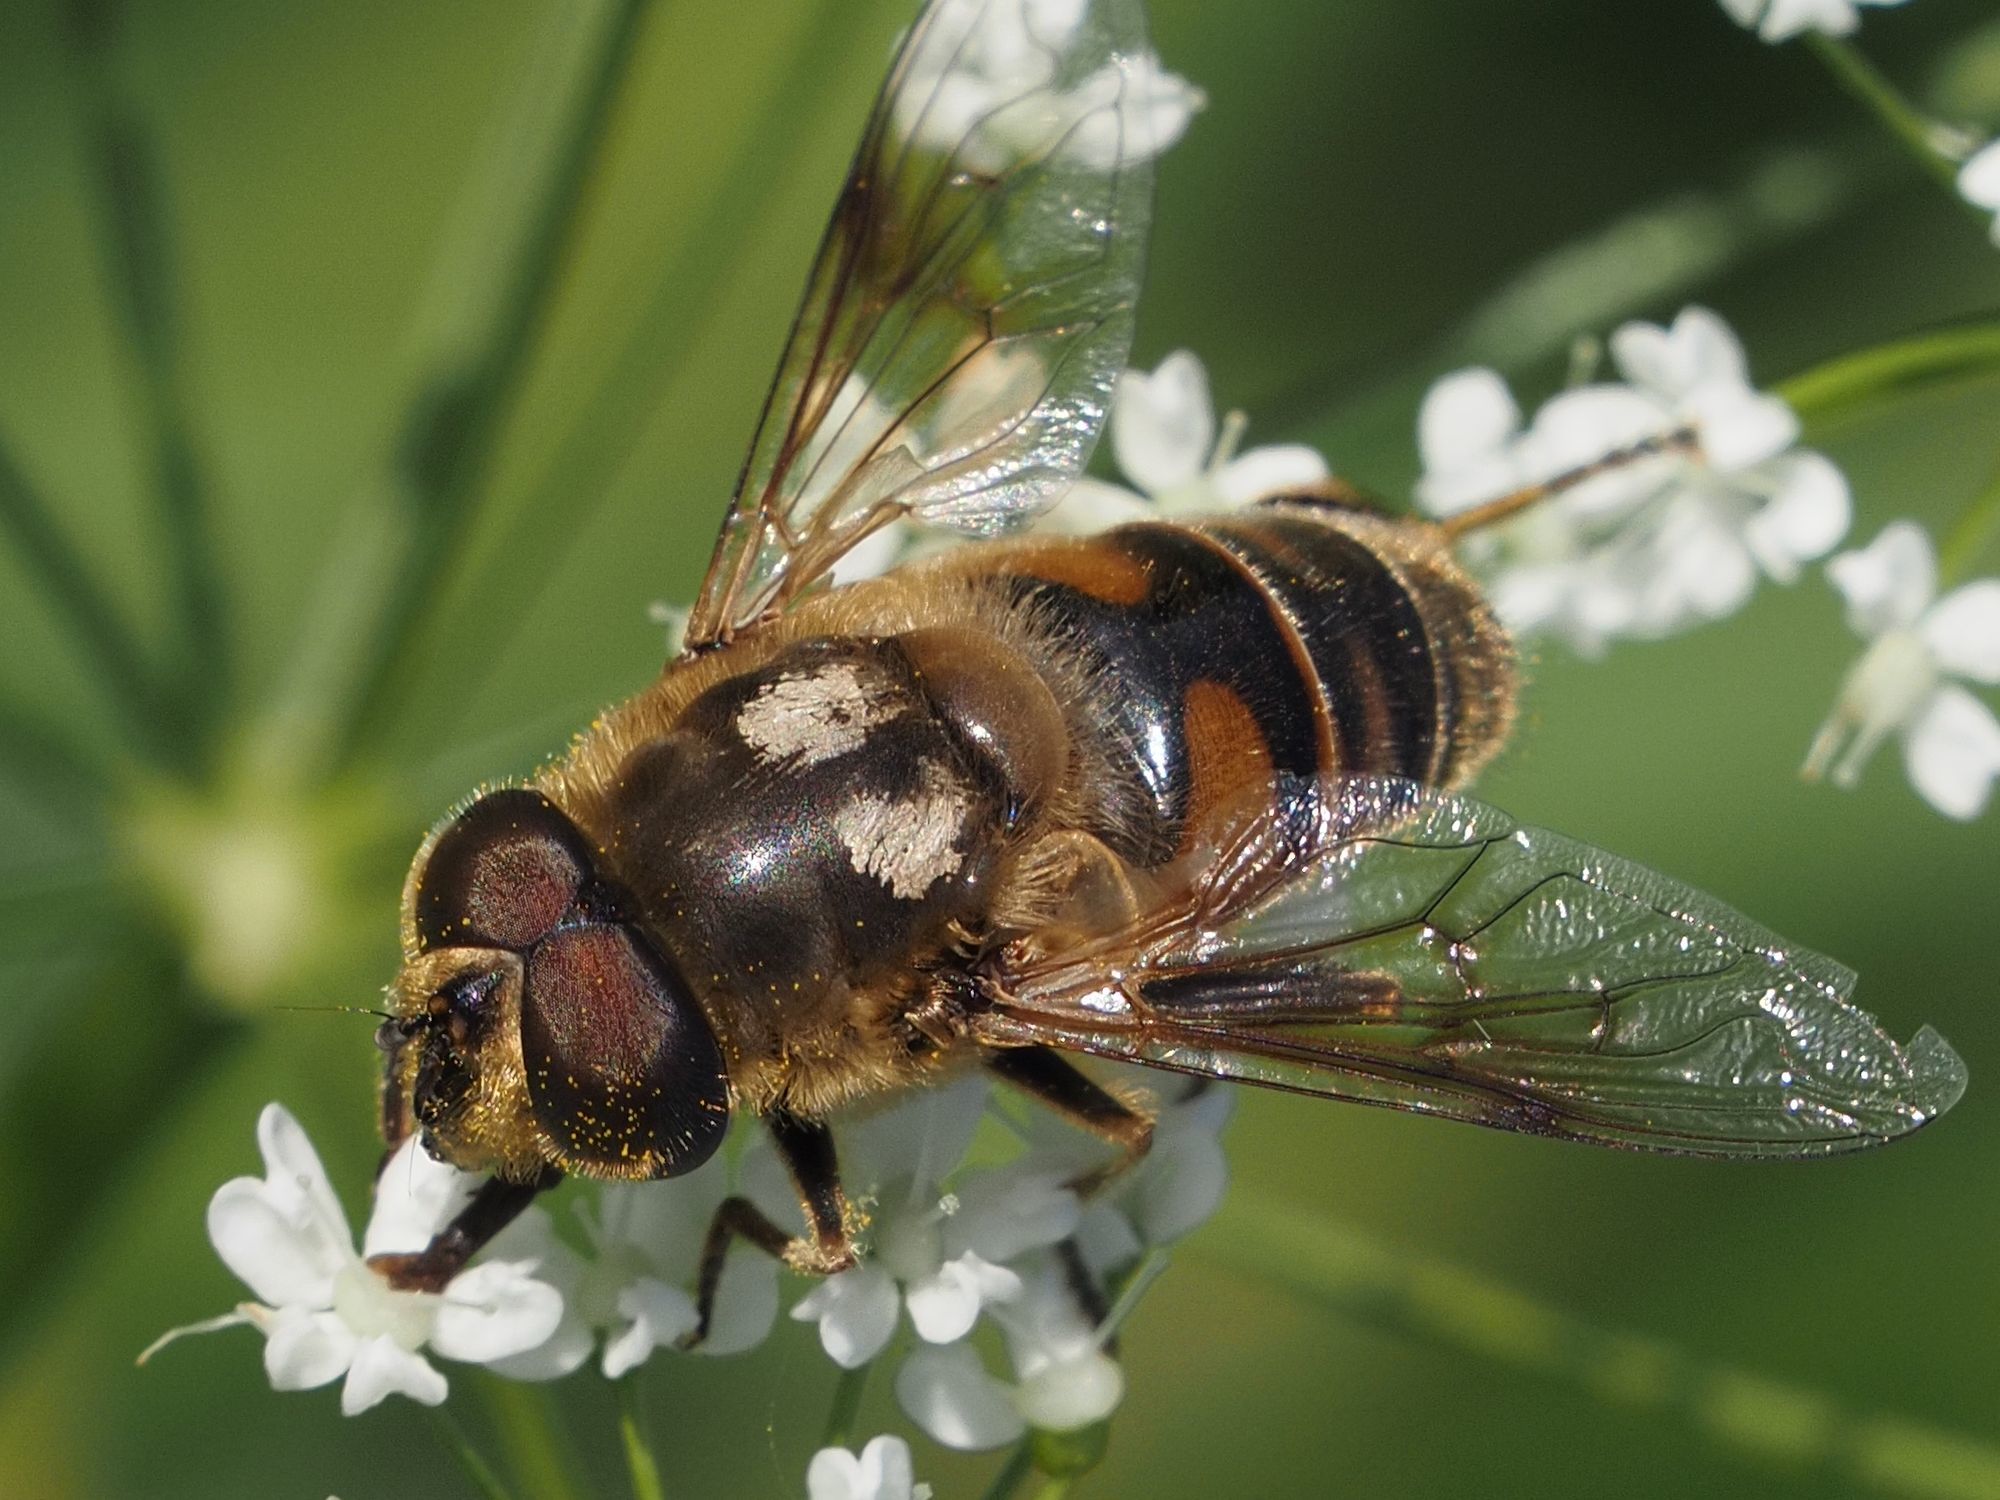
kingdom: Animalia
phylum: Arthropoda
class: Insecta
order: Diptera
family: Syrphidae
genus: Eristalis
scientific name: Eristalis tenax
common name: Drone fly
